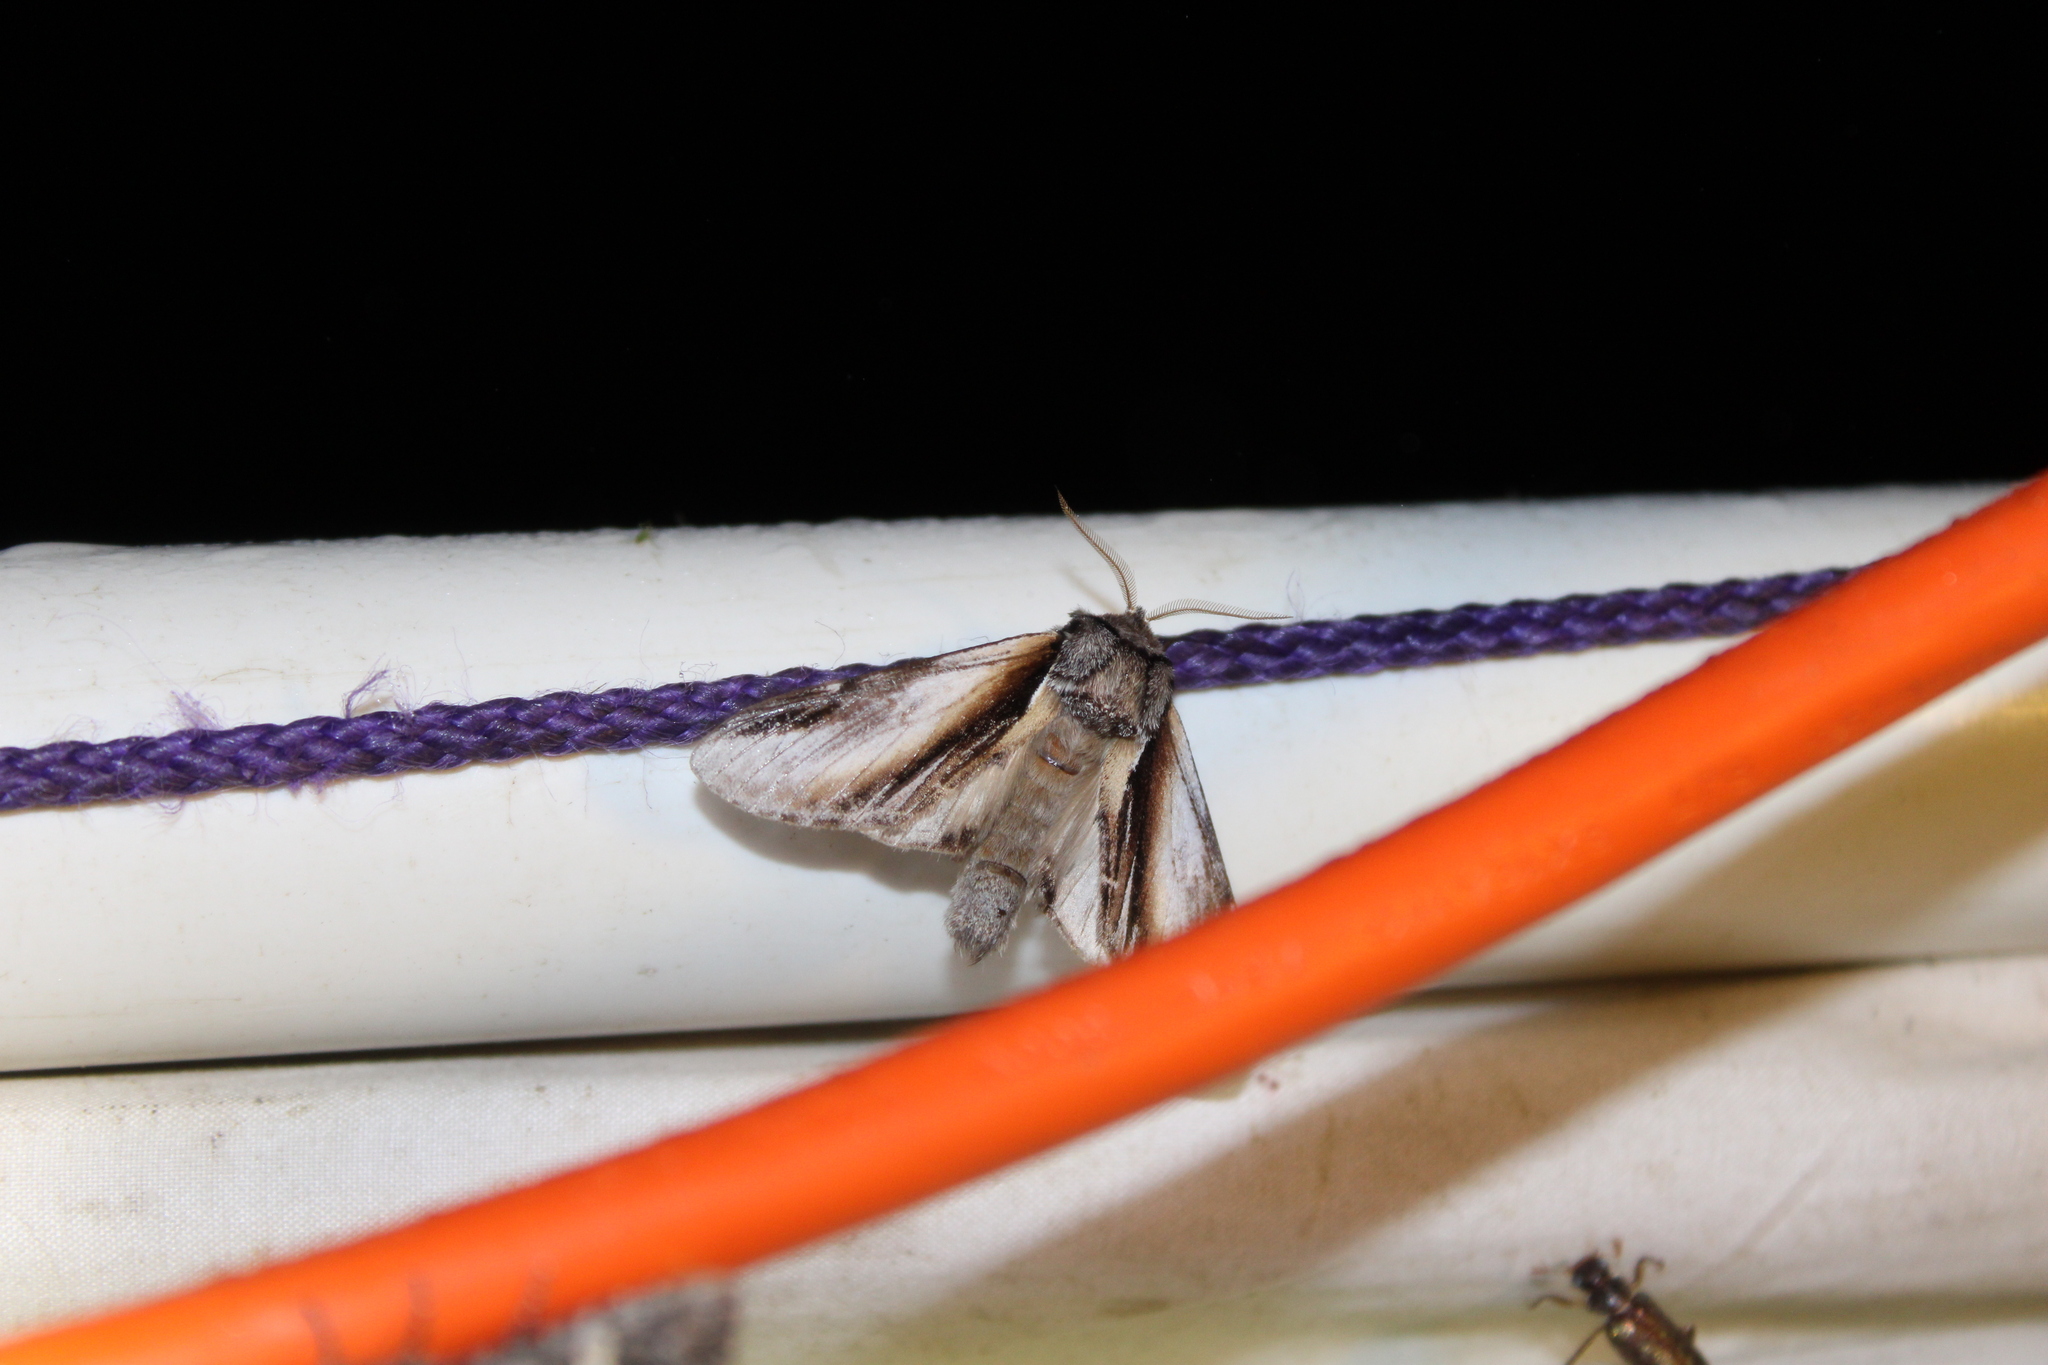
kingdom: Animalia
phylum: Arthropoda
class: Insecta
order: Lepidoptera
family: Notodontidae
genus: Pheosia
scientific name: Pheosia rimosa
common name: Black-rimmed prominent
